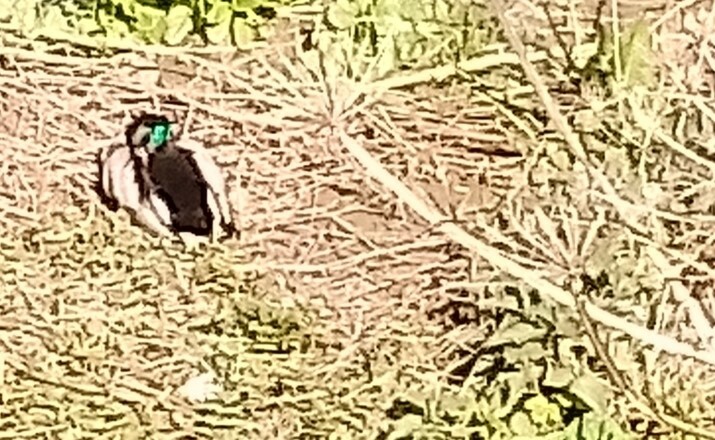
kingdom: Animalia
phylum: Chordata
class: Aves
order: Anseriformes
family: Anatidae
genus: Anas
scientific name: Anas platyrhynchos
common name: Mallard
